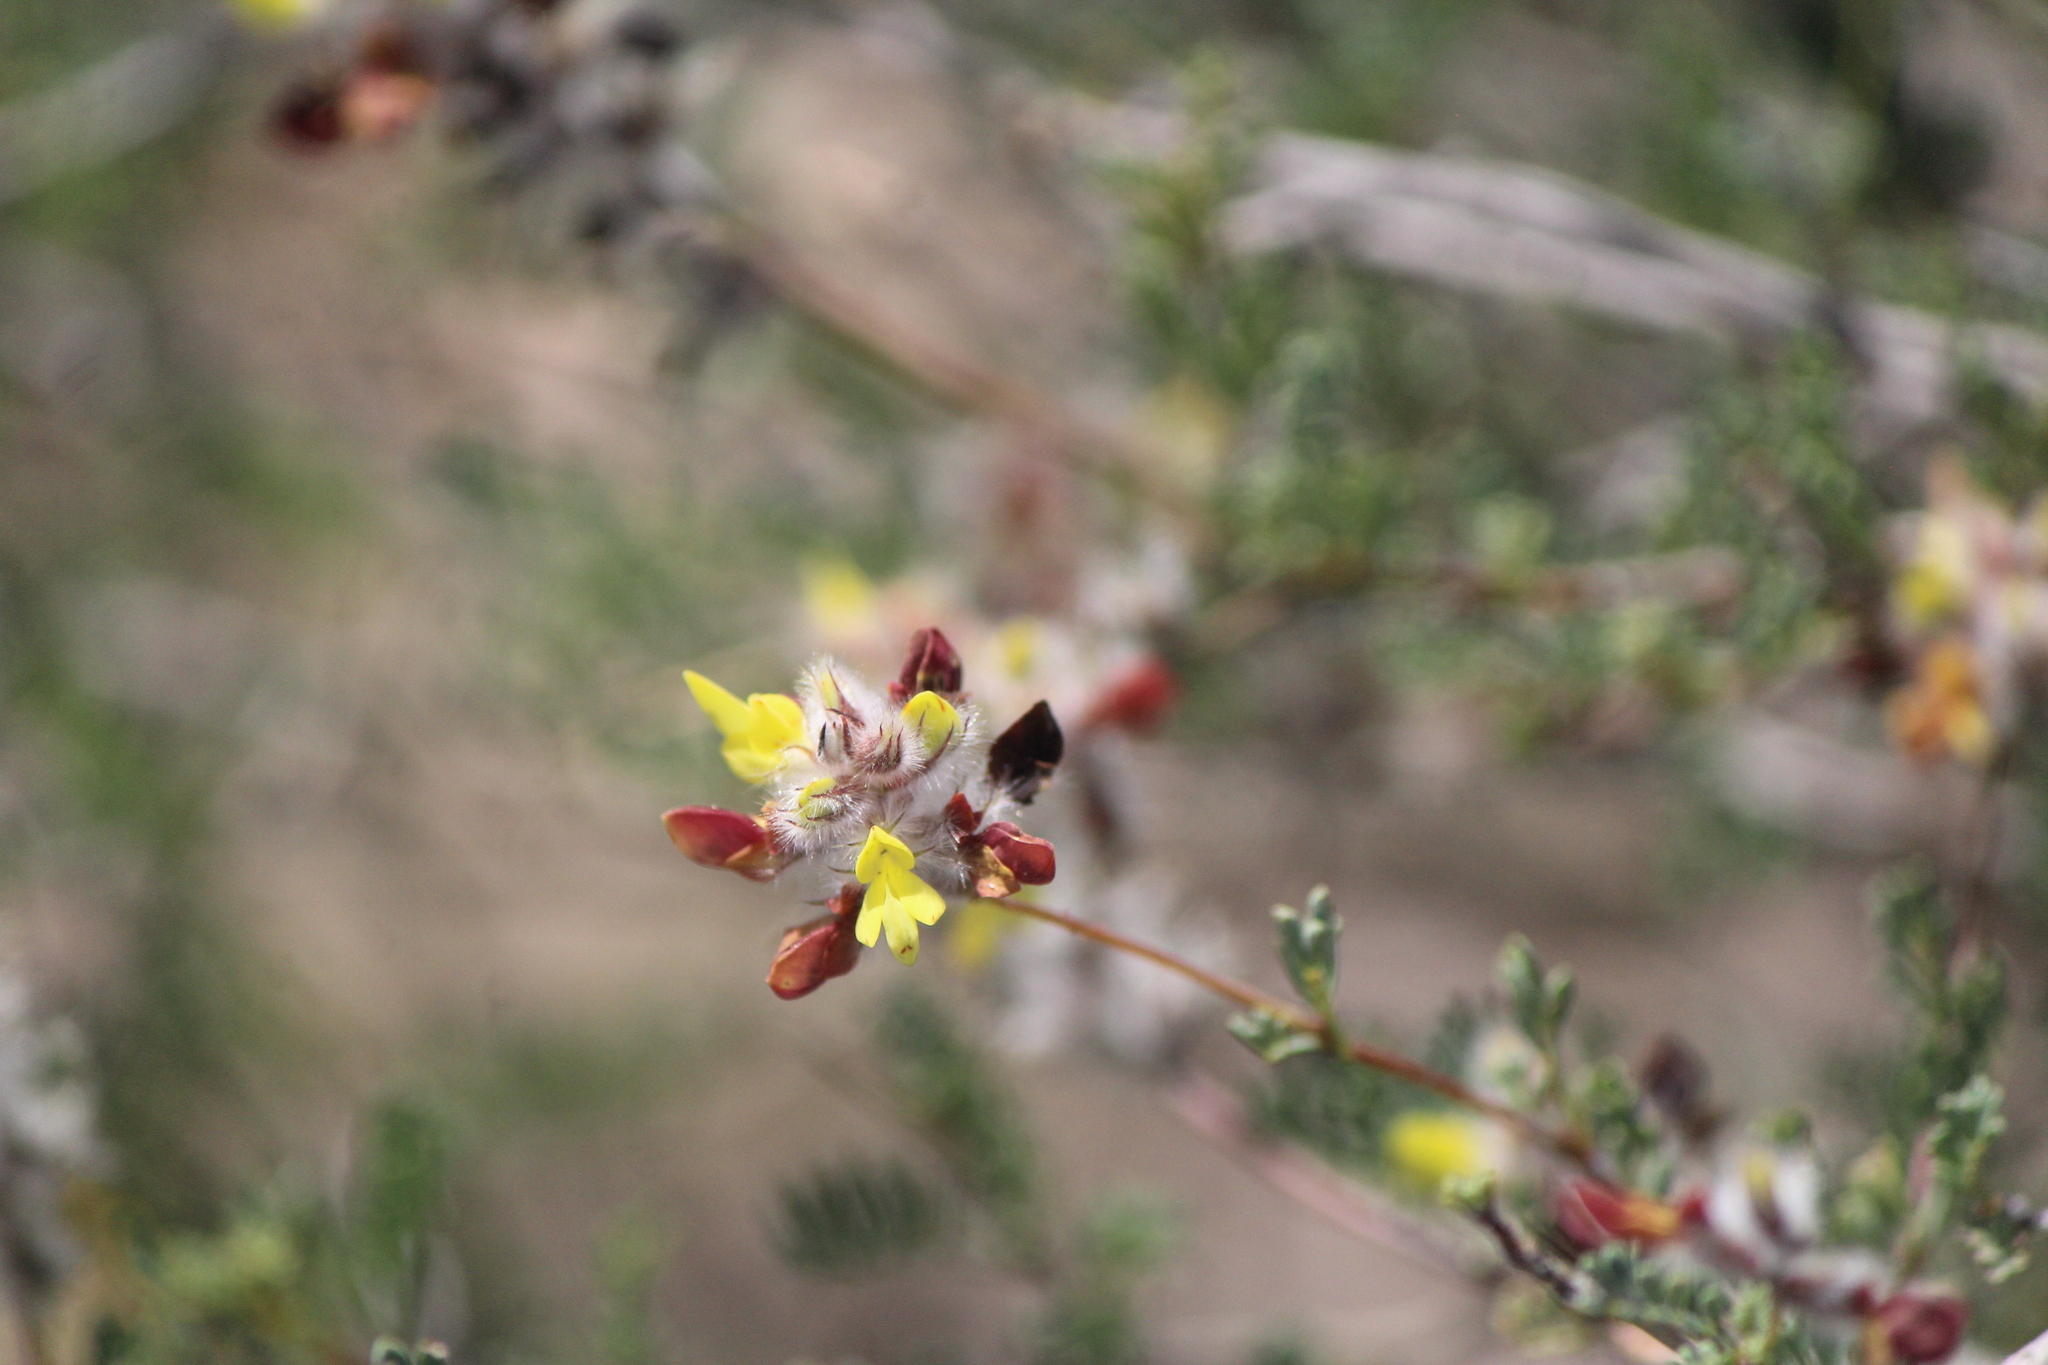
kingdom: Plantae
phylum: Tracheophyta
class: Magnoliopsida
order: Fabales
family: Fabaceae
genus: Dalea
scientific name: Dalea melantha
